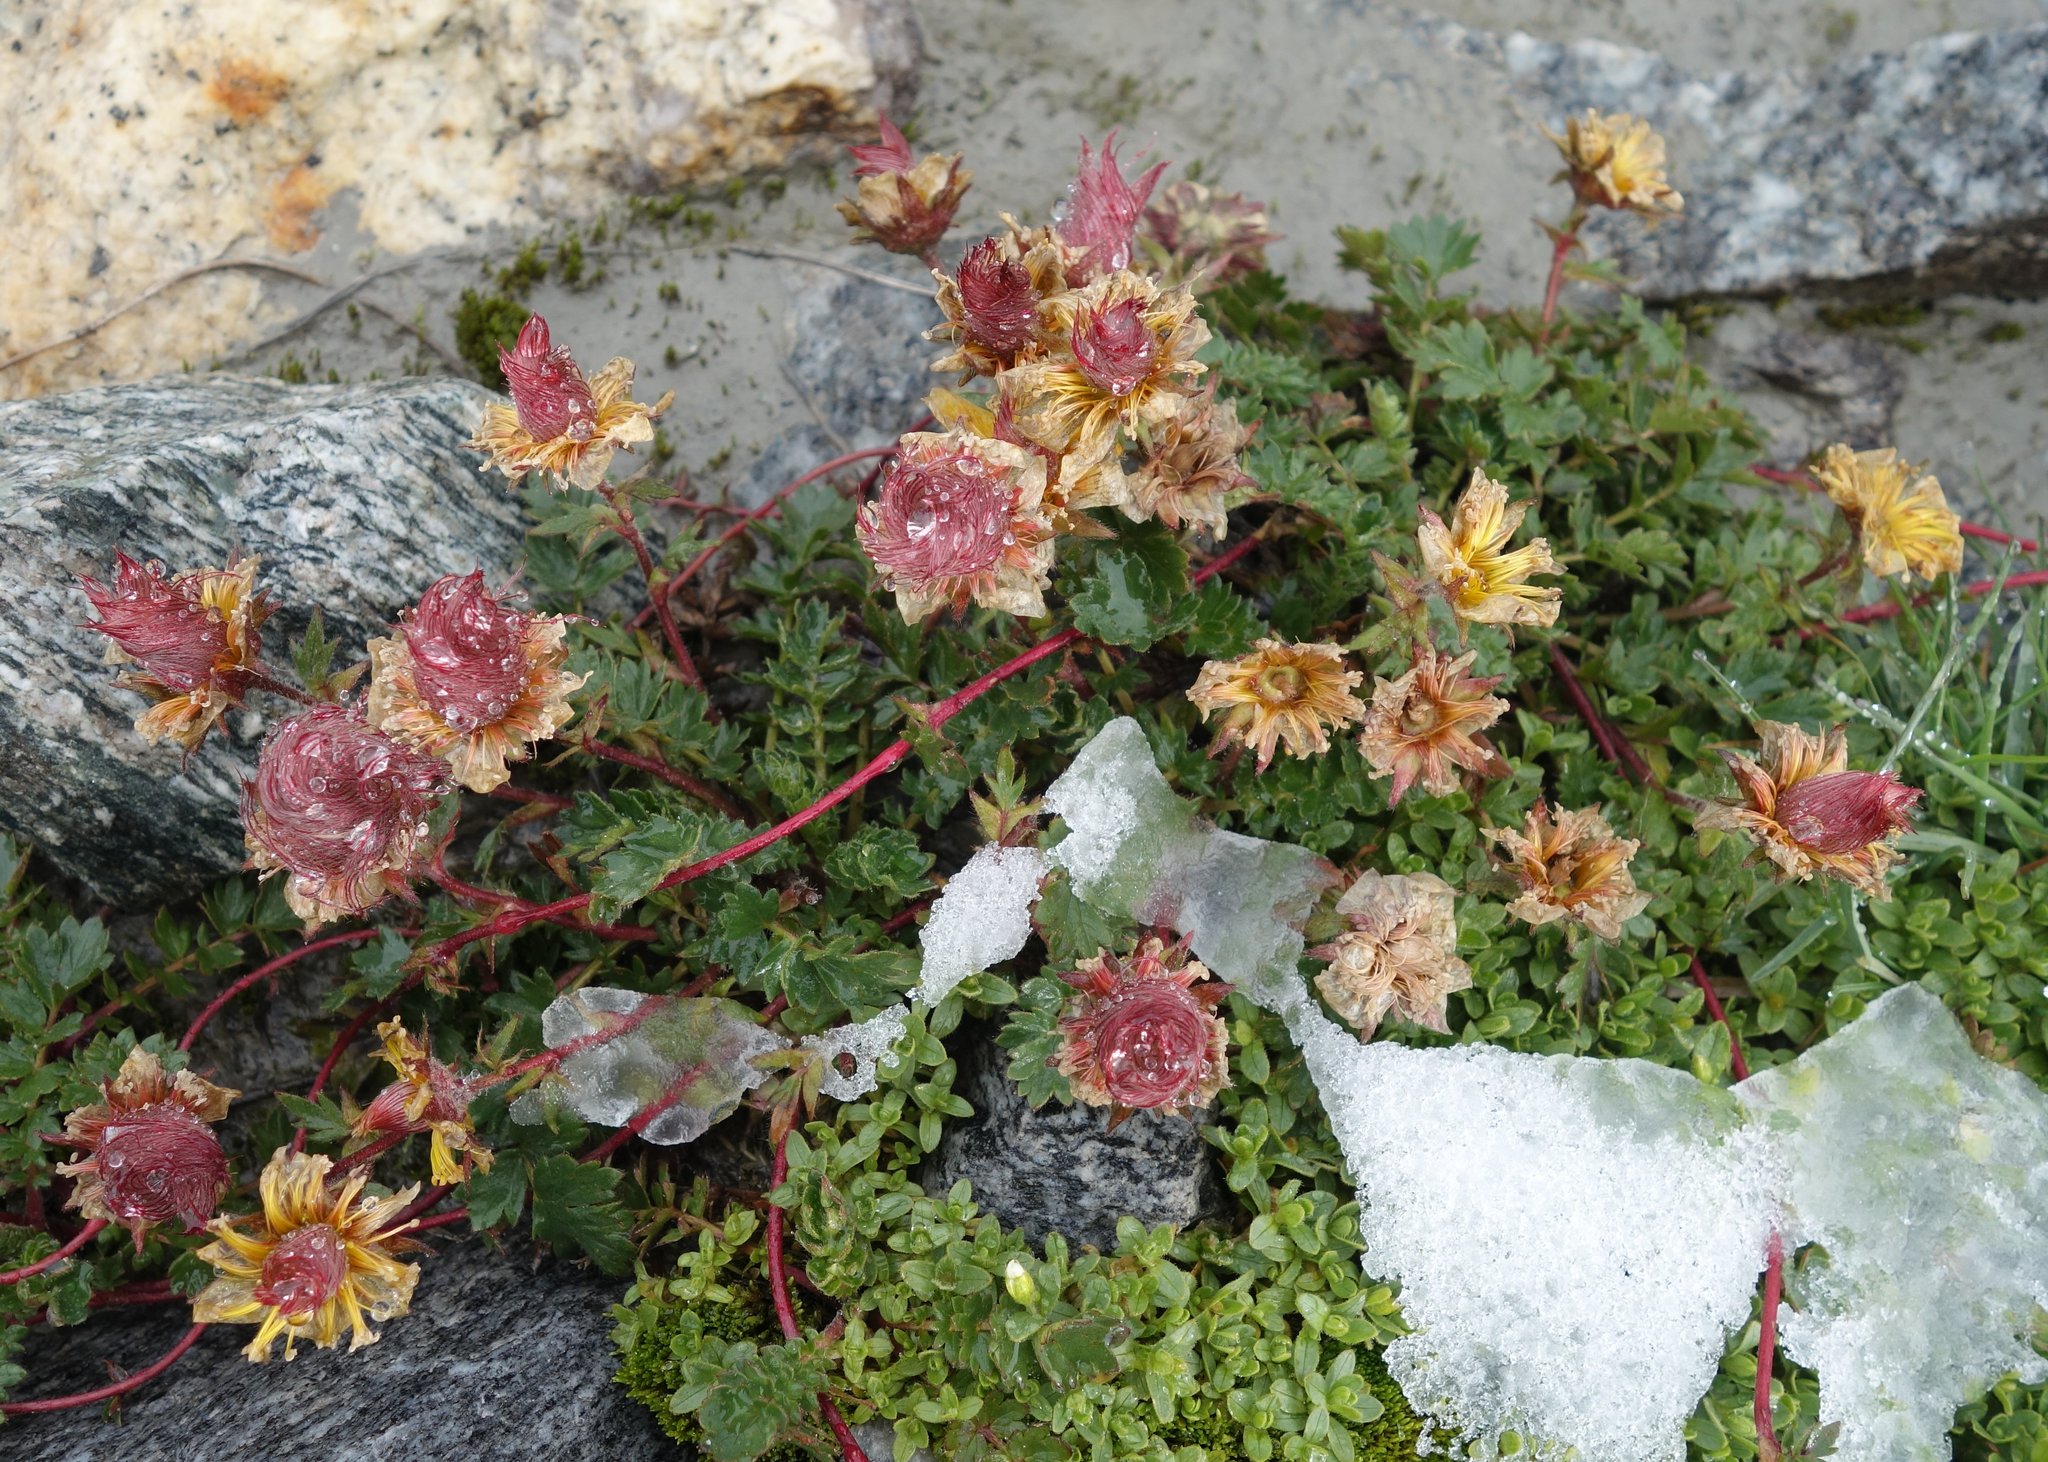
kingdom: Plantae
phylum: Tracheophyta
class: Magnoliopsida
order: Rosales
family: Rosaceae
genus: Geum
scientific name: Geum reptans
